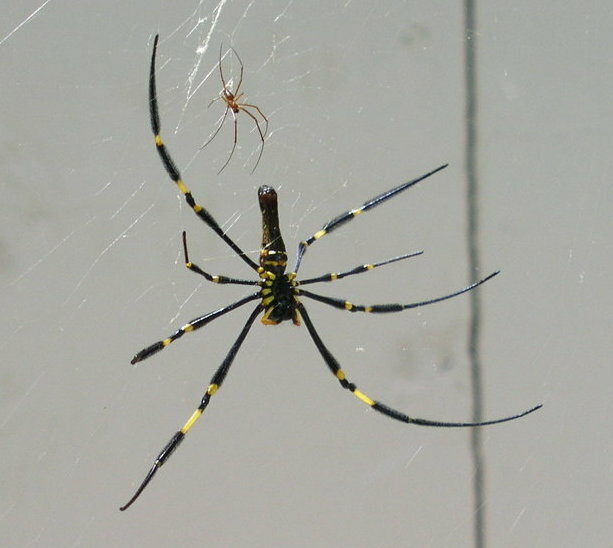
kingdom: Animalia
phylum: Arthropoda
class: Arachnida
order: Araneae
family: Araneidae
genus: Nephila
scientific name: Nephila pilipes
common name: Giant golden orb weaver
